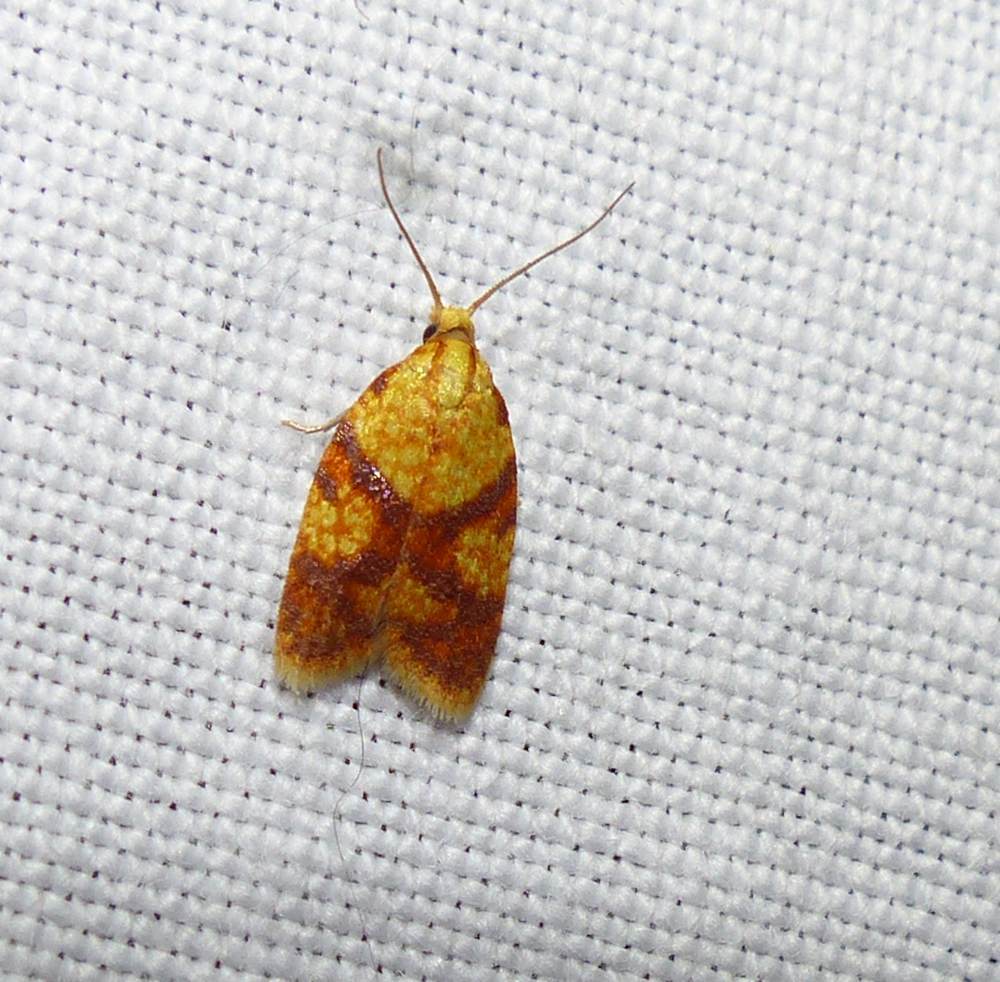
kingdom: Animalia
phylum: Arthropoda
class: Insecta
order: Lepidoptera
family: Tortricidae
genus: Sparganothis
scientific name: Sparganothis sulfureana
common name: Sparganothis fruitworm moth
